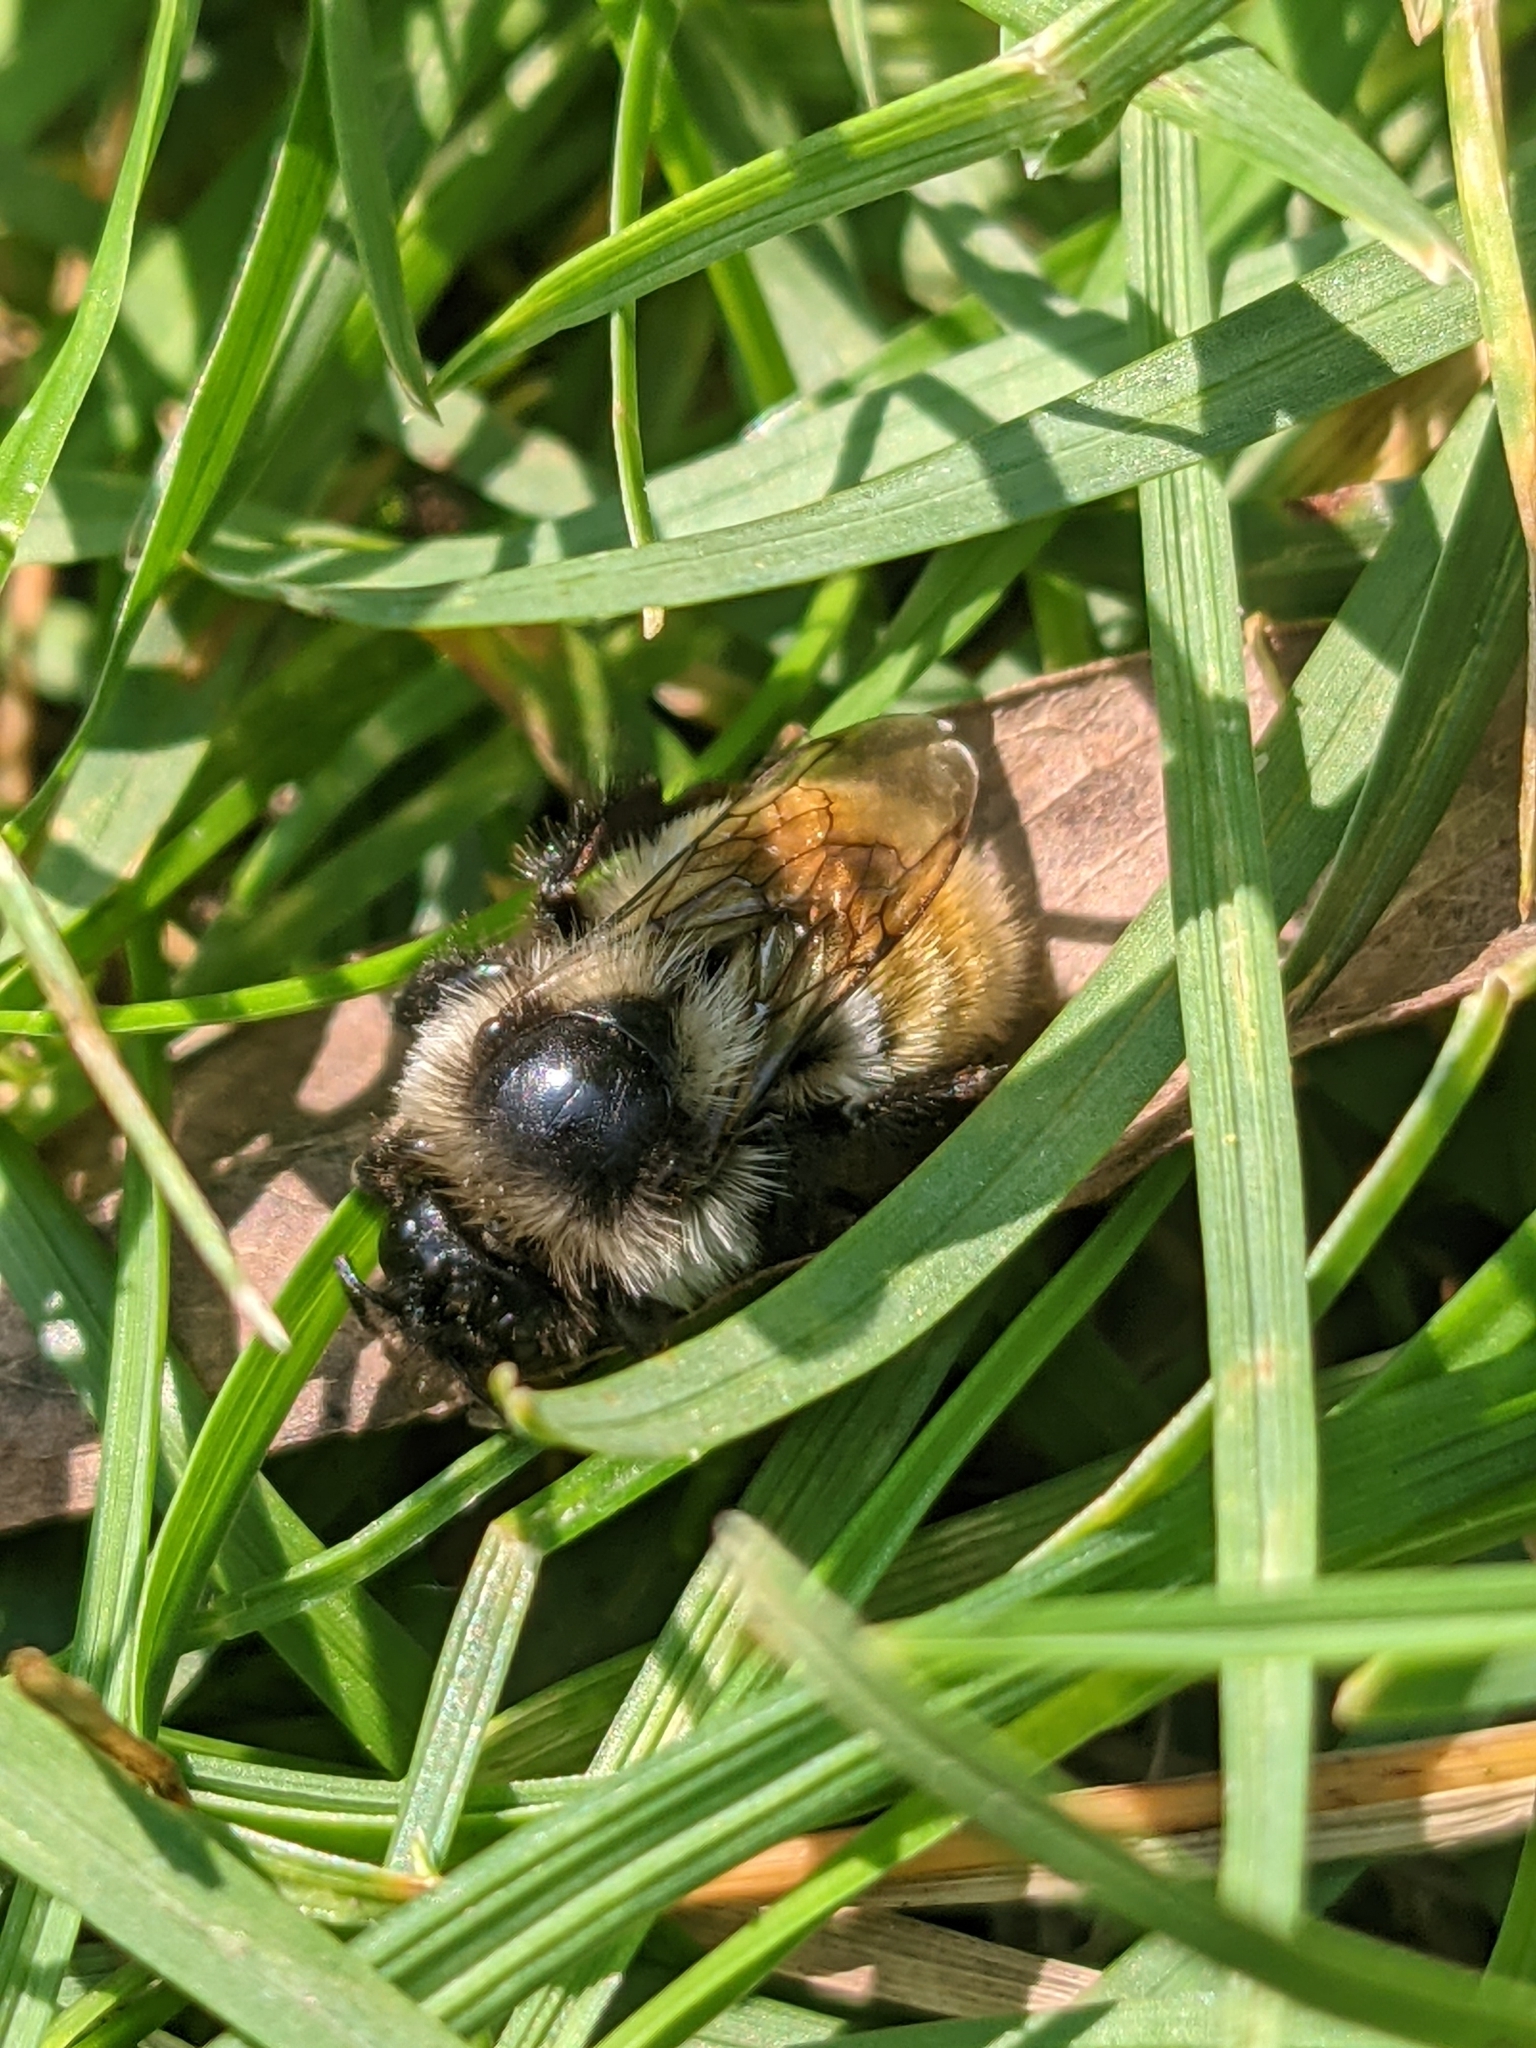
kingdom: Animalia
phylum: Arthropoda
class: Insecta
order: Hymenoptera
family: Apidae
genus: Bombus
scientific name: Bombus ternarius
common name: Tri-colored bumble bee
